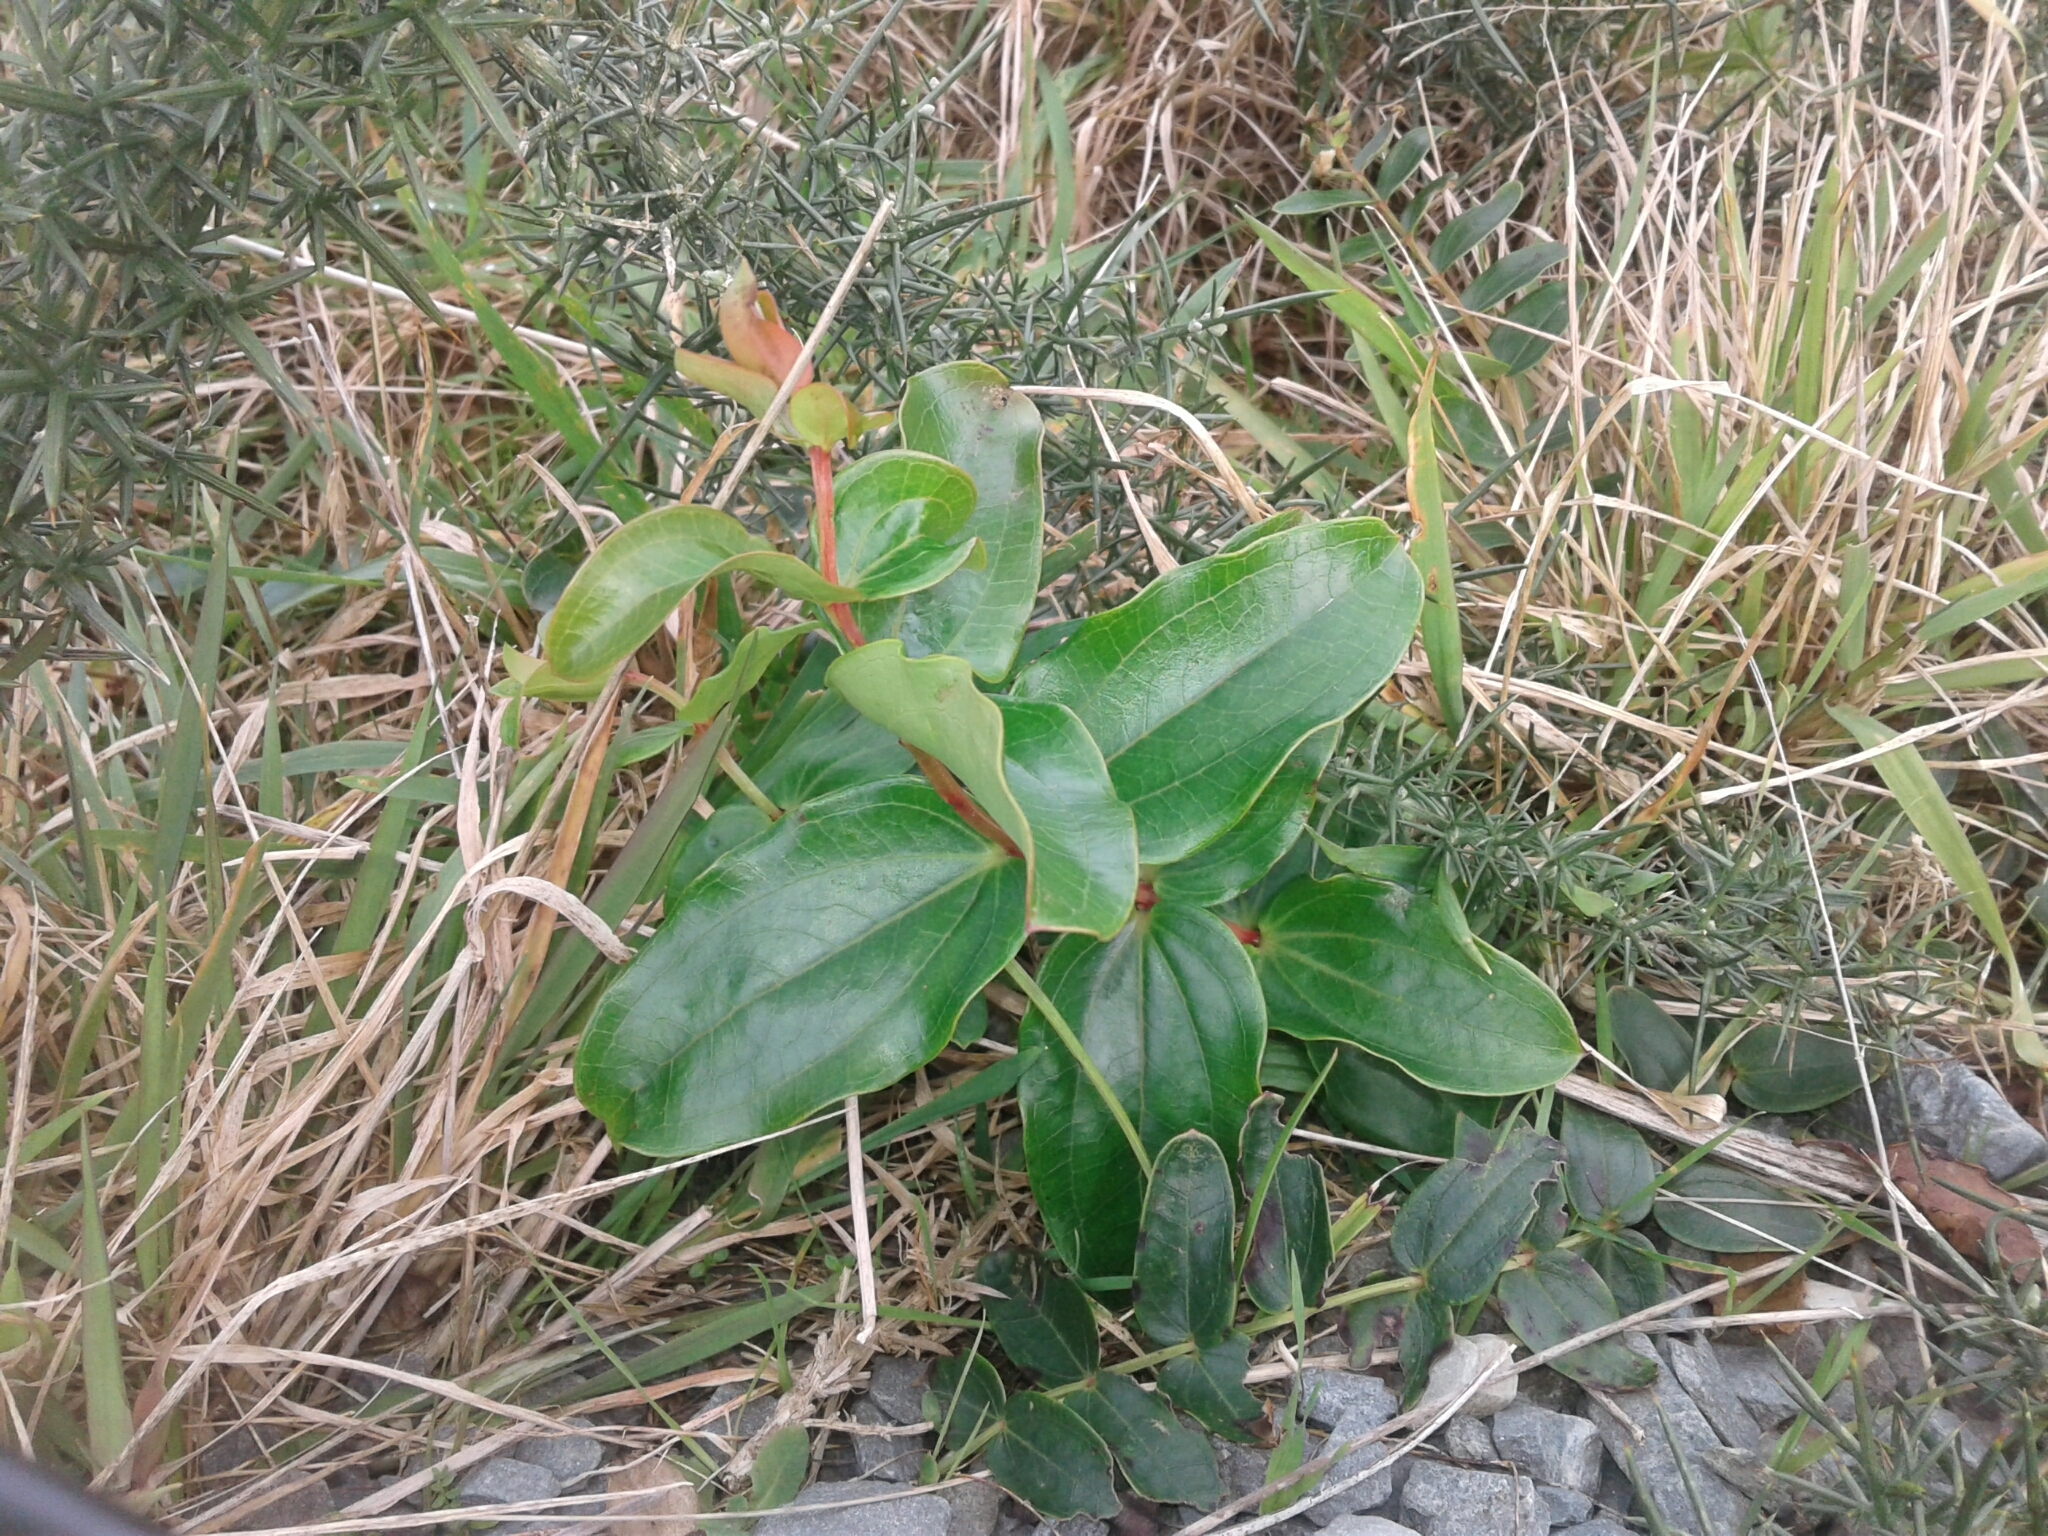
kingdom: Plantae
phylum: Tracheophyta
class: Magnoliopsida
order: Cucurbitales
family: Coriariaceae
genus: Coriaria
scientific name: Coriaria arborea
